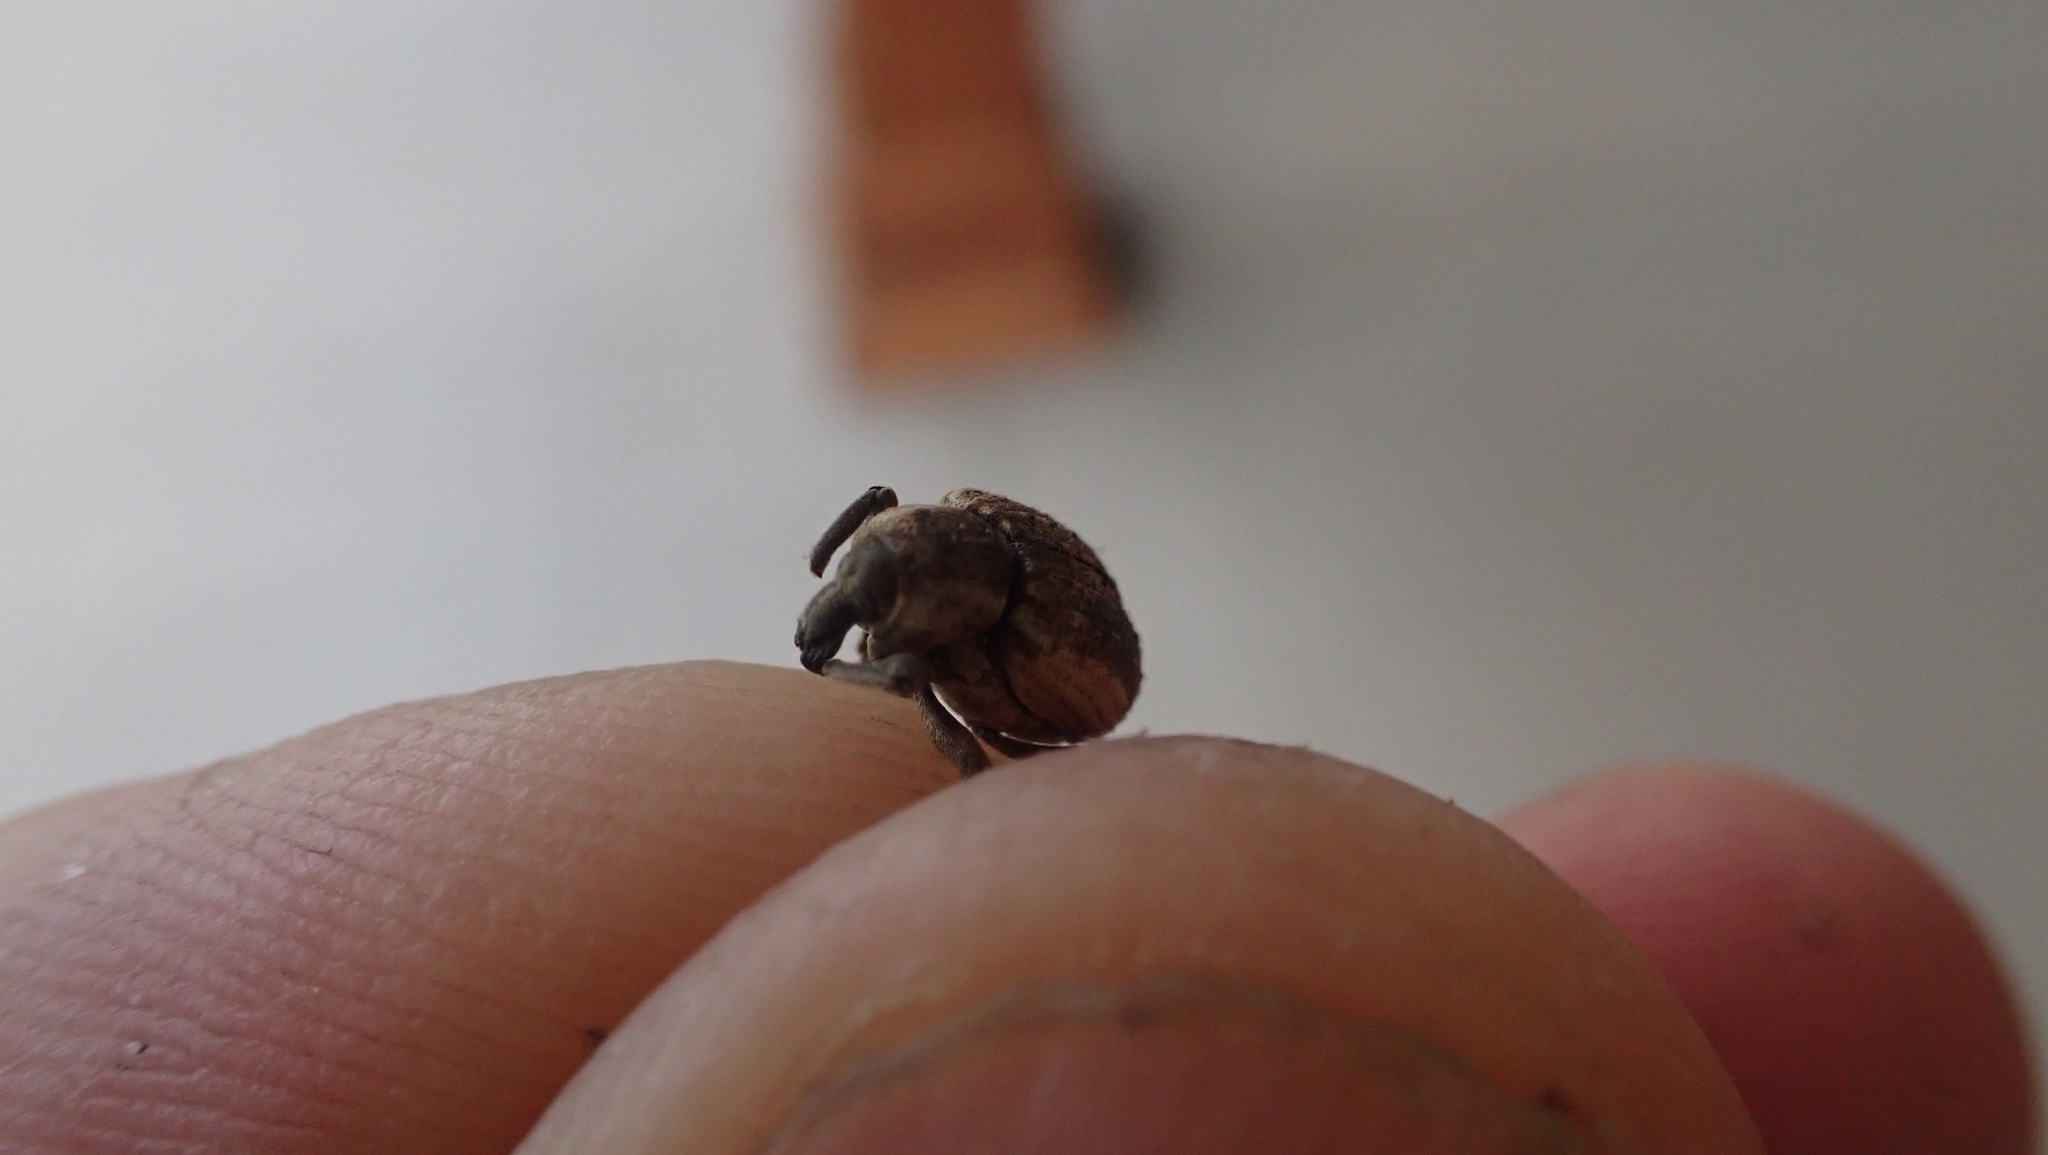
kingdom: Animalia
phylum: Arthropoda
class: Insecta
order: Coleoptera
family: Curculionidae
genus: Brachypera
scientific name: Brachypera zoilus
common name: Clover leaf weevil
